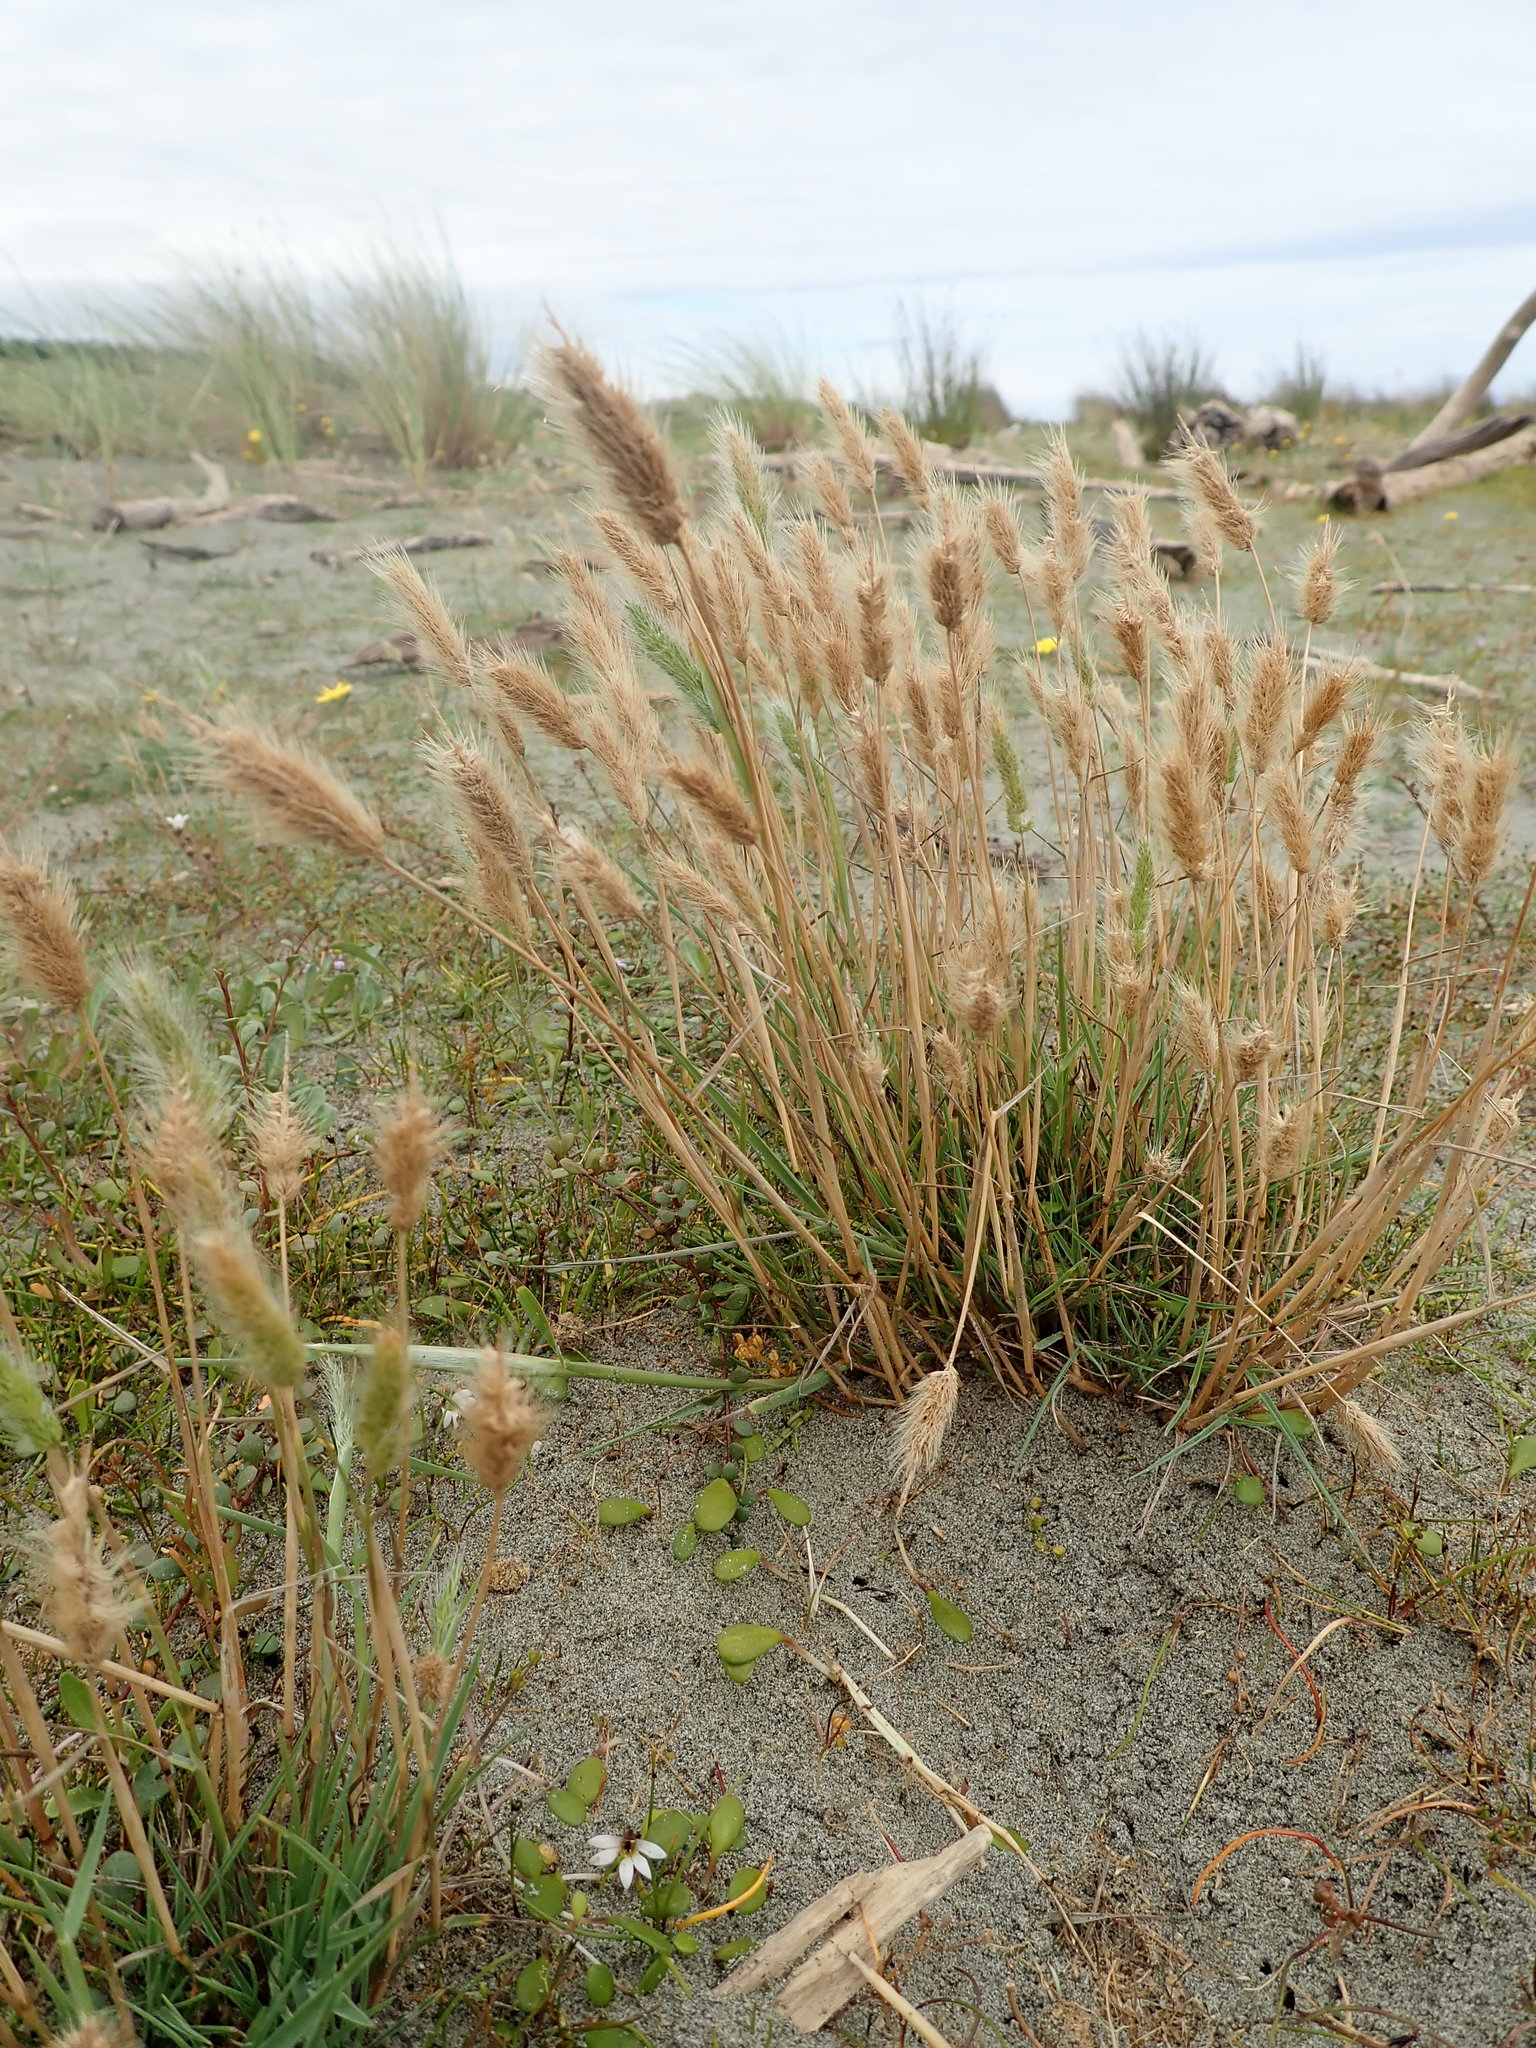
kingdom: Plantae
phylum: Tracheophyta
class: Liliopsida
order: Poales
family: Poaceae
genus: Polypogon
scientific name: Polypogon monspeliensis
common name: Annual rabbitsfoot grass
